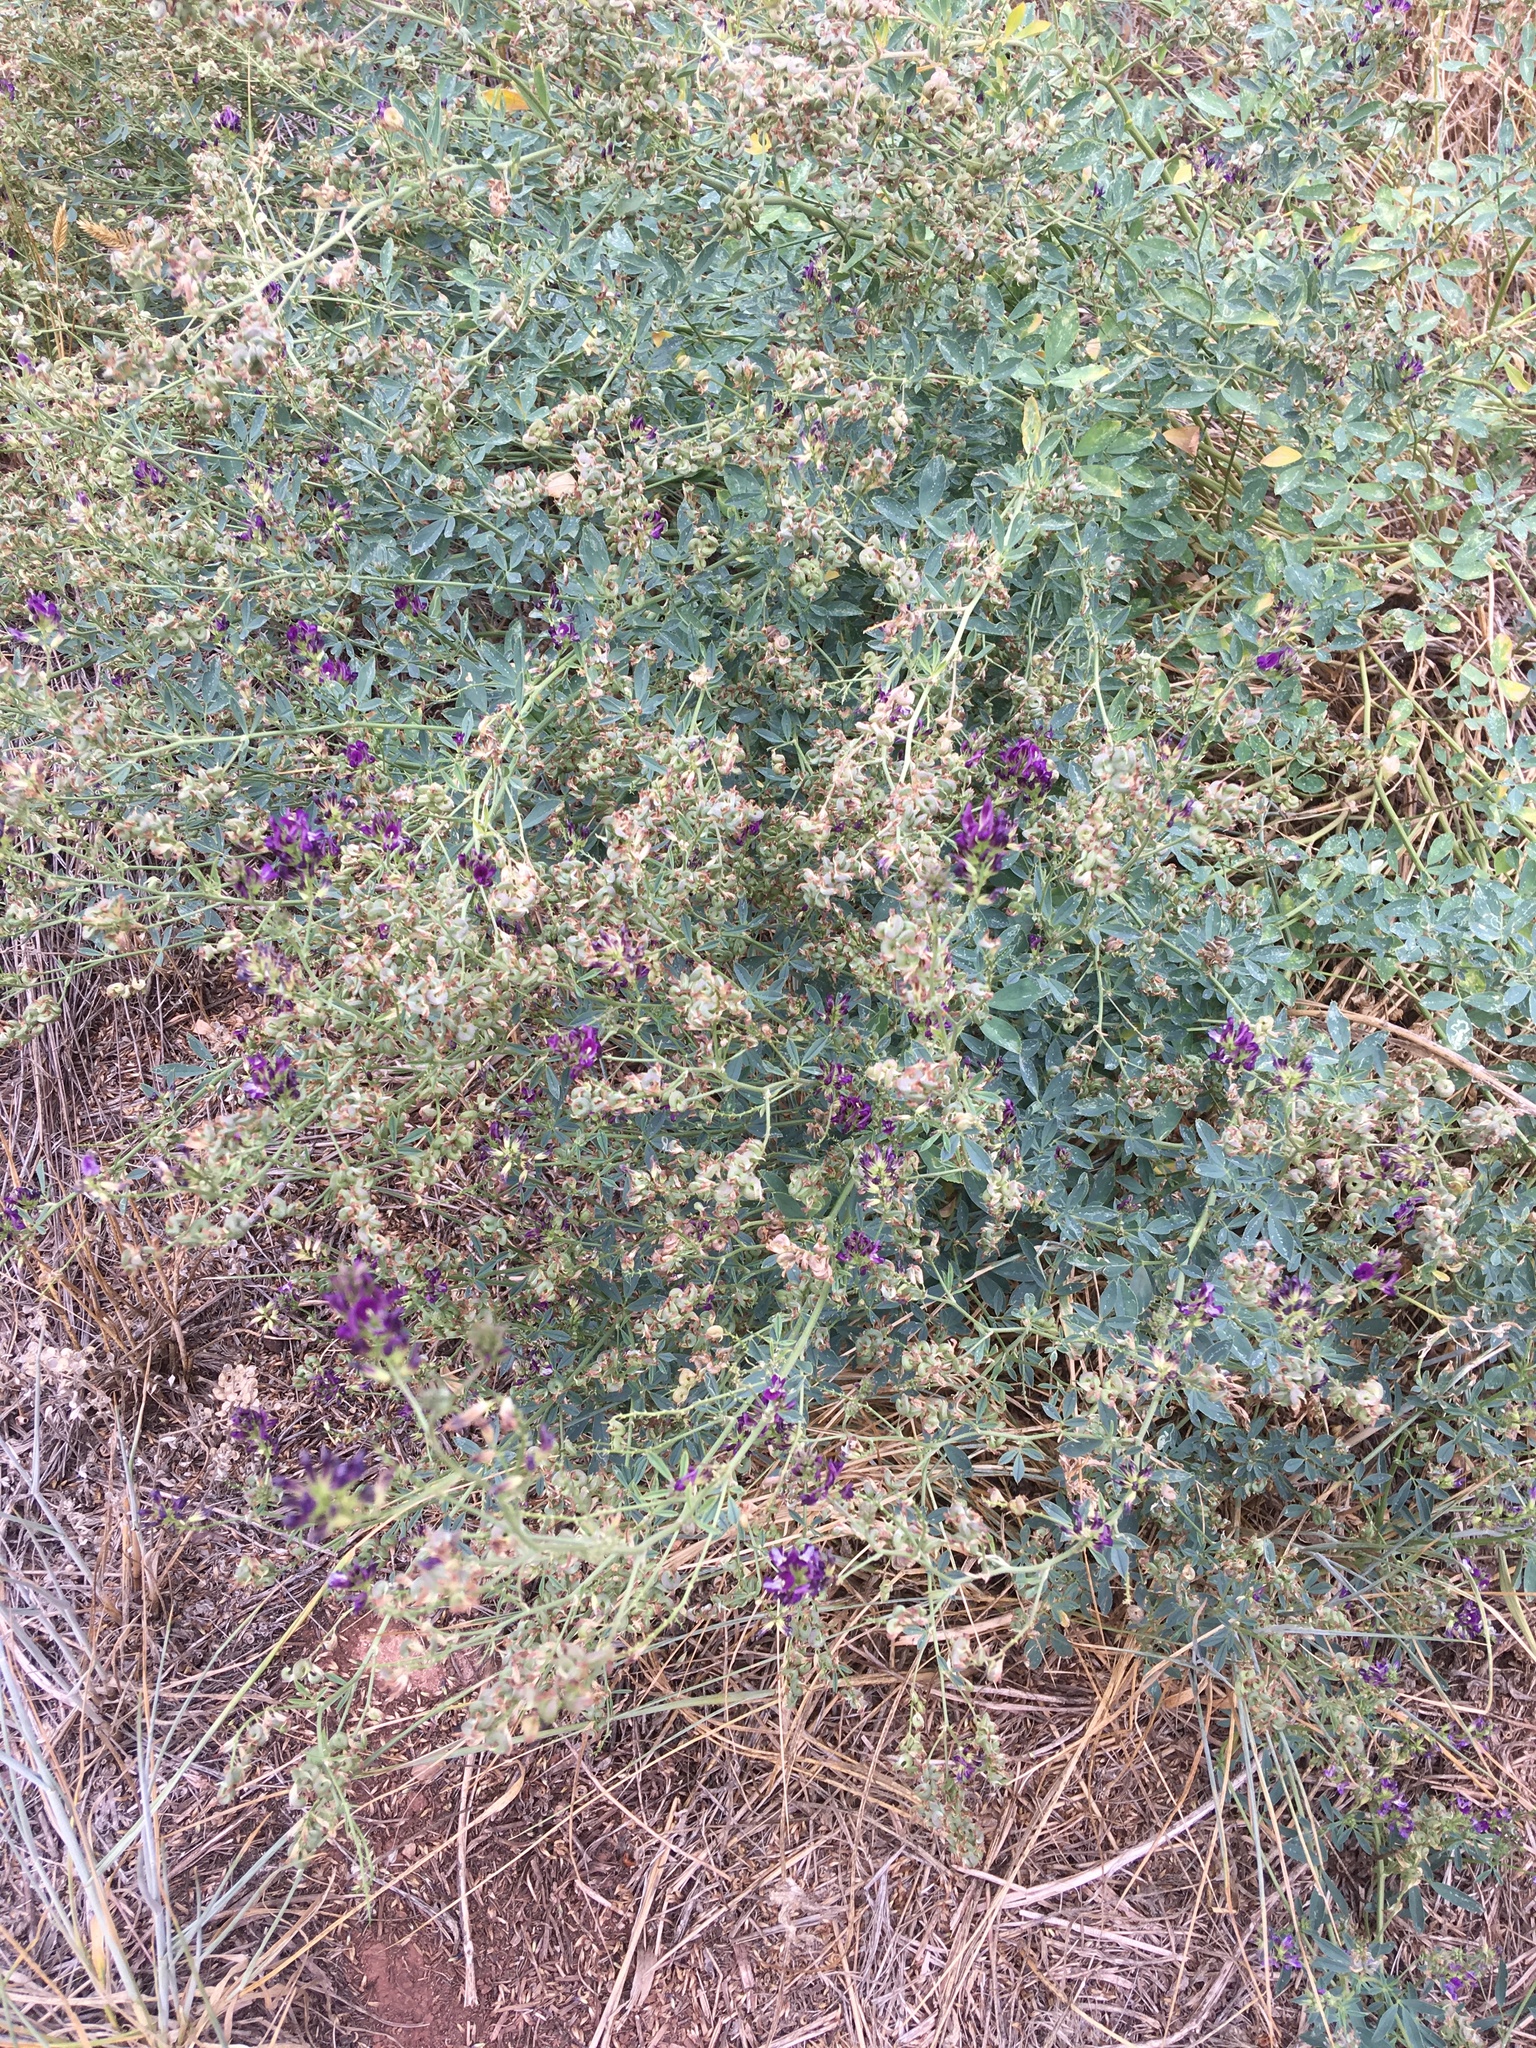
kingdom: Plantae
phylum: Tracheophyta
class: Magnoliopsida
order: Fabales
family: Fabaceae
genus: Medicago
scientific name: Medicago sativa
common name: Alfalfa
